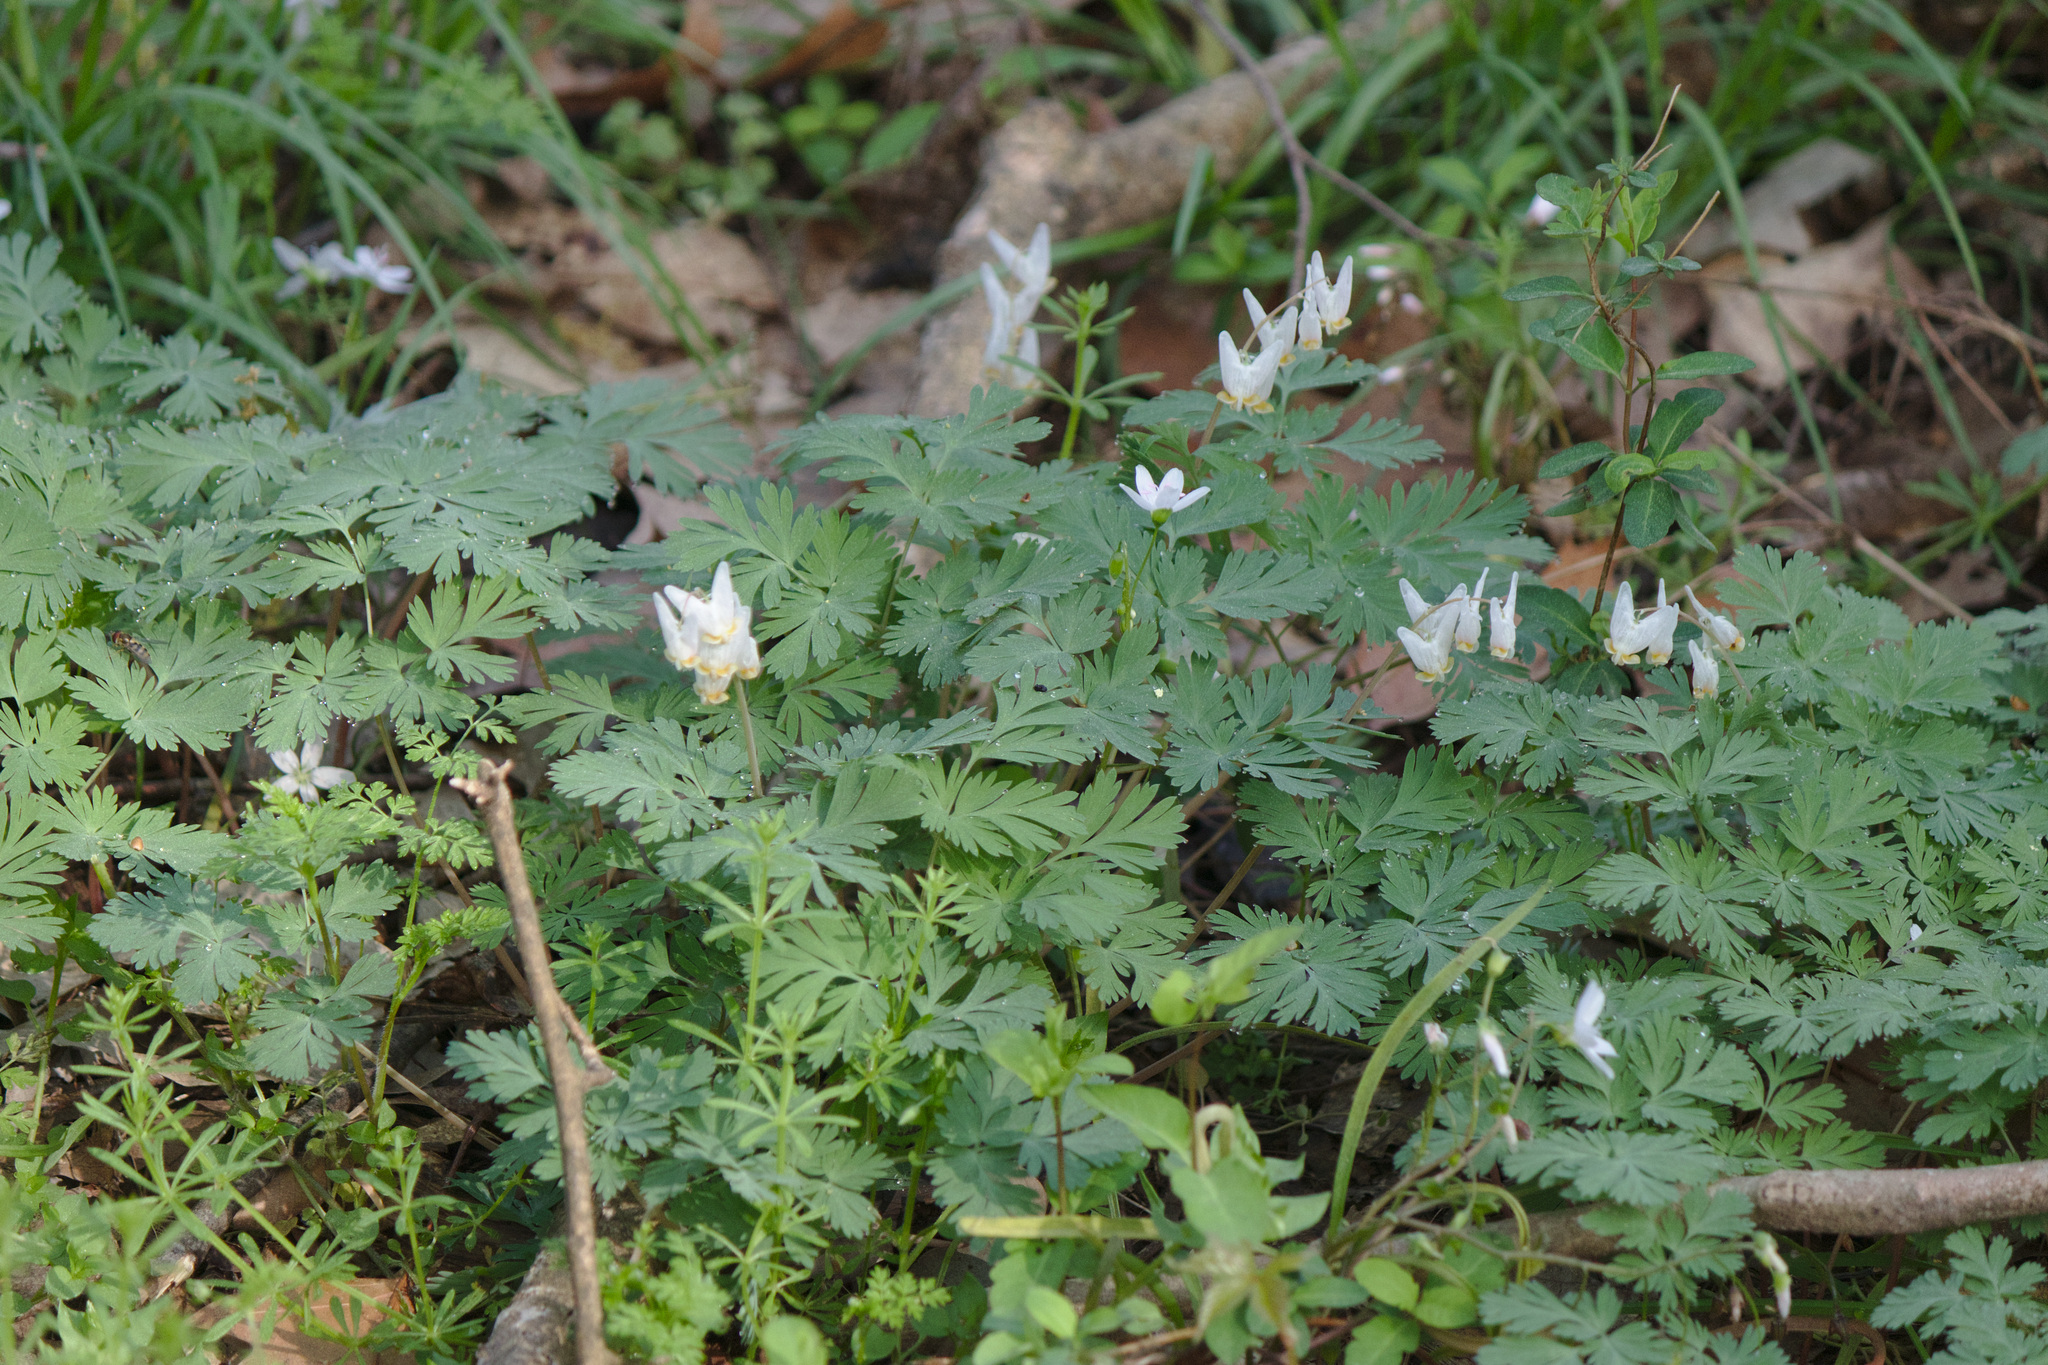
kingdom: Plantae
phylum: Tracheophyta
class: Magnoliopsida
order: Ranunculales
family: Papaveraceae
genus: Dicentra
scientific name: Dicentra cucullaria
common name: Dutchman's breeches
